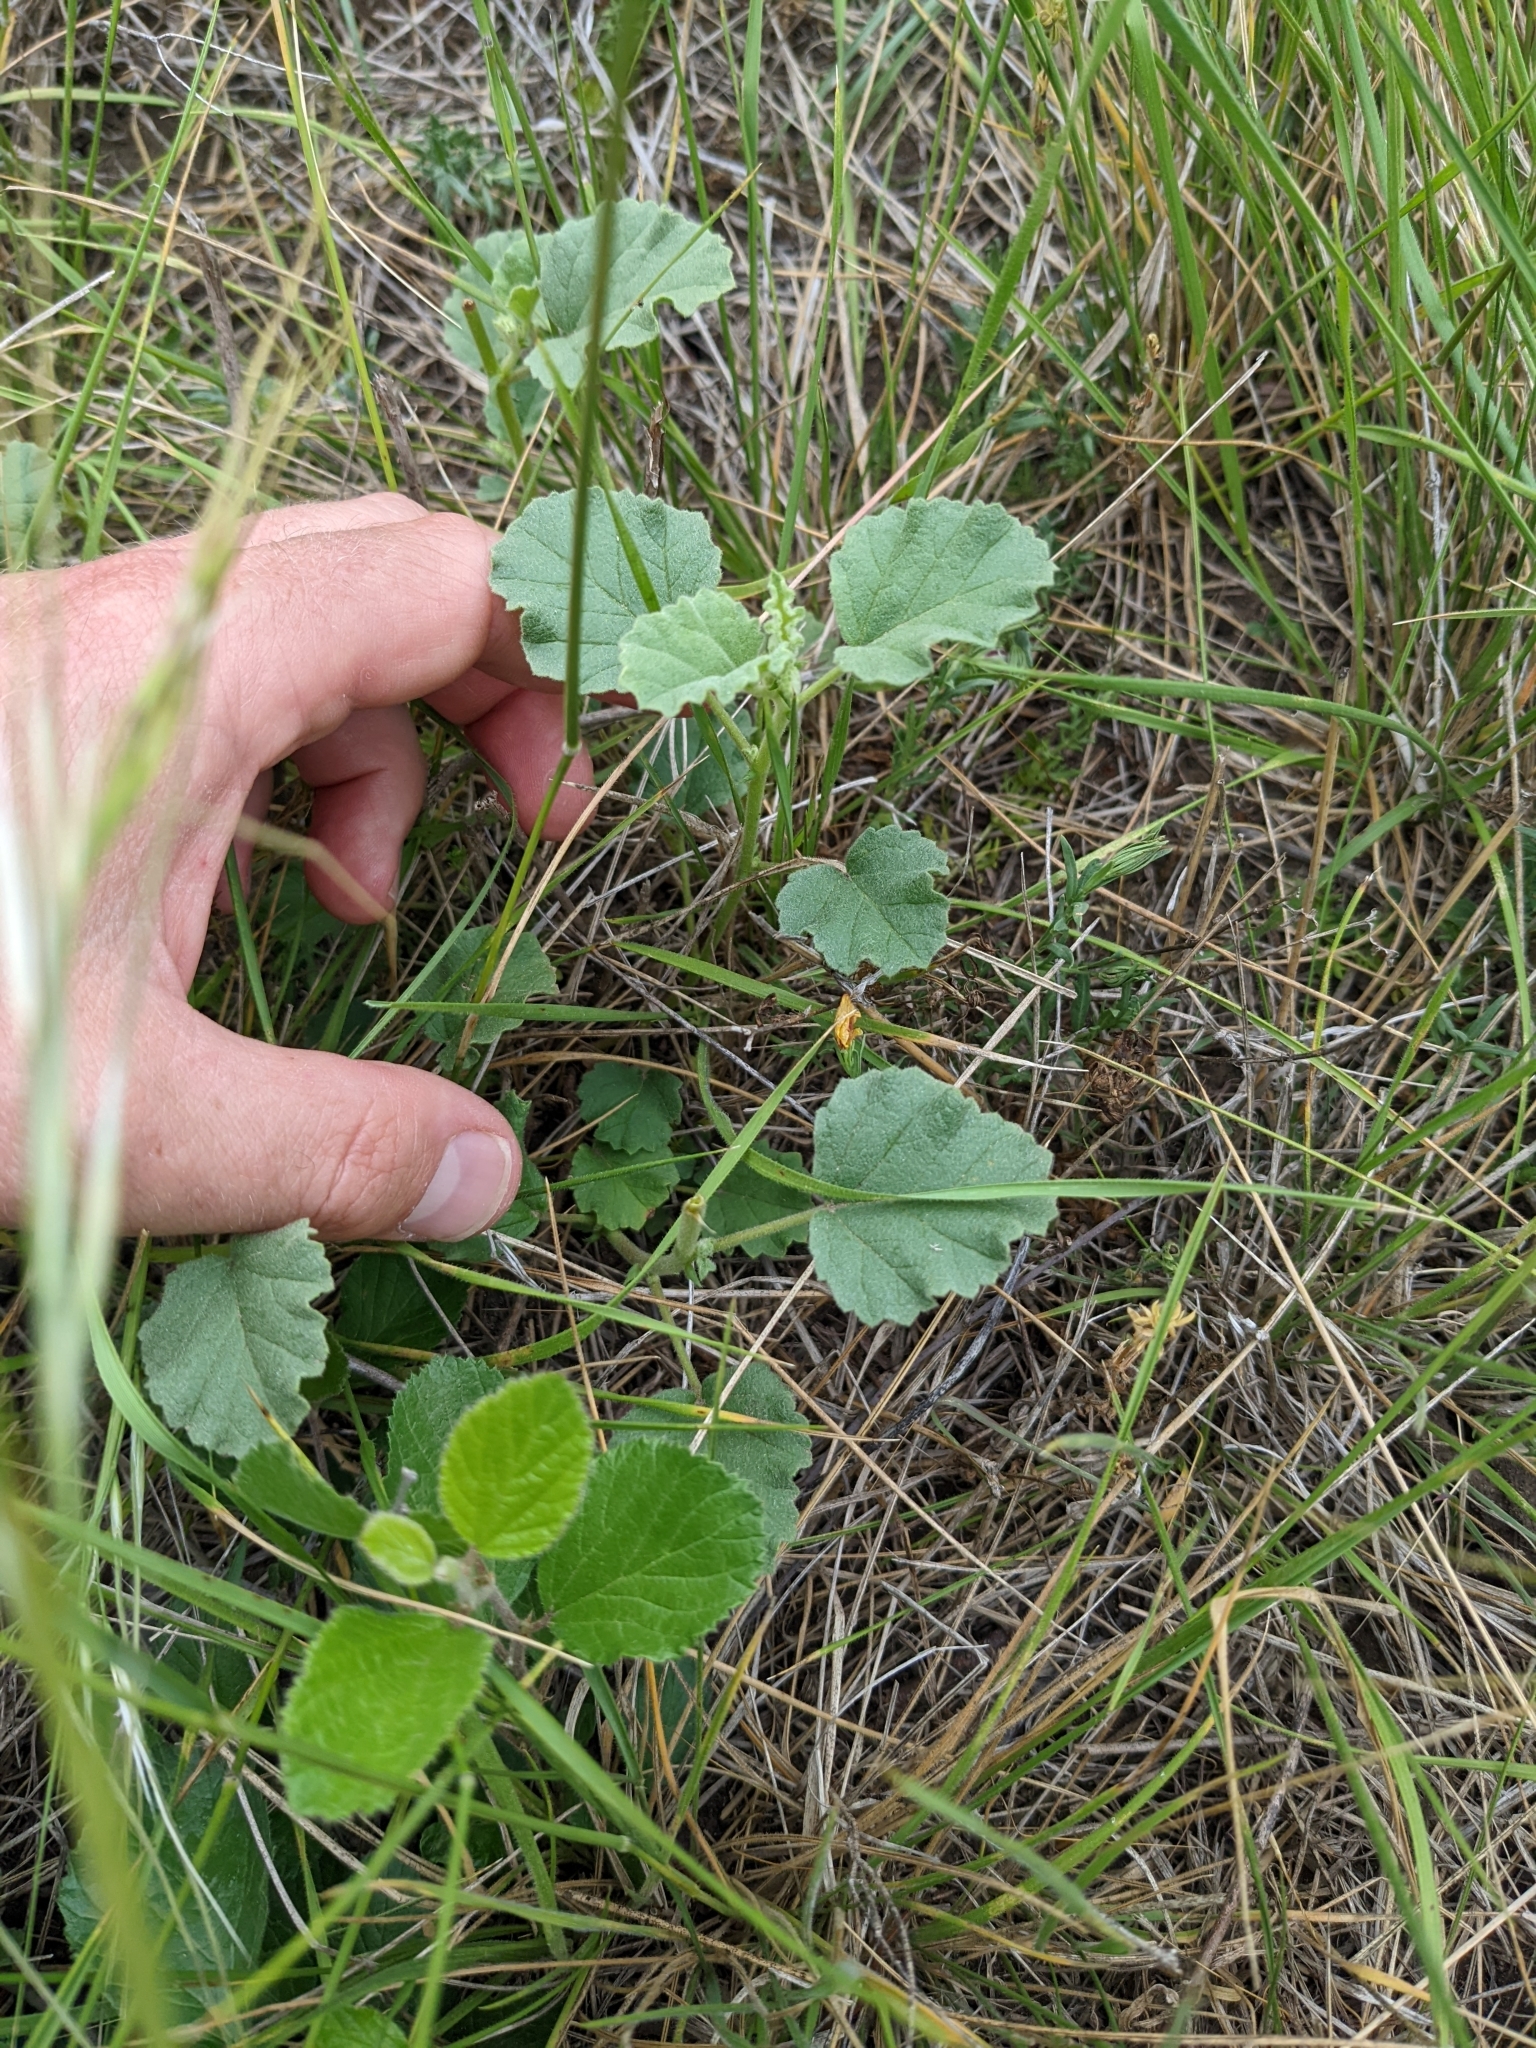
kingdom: Plantae
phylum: Tracheophyta
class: Magnoliopsida
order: Malvales
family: Malvaceae
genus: Hermannia
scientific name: Hermannia texana
